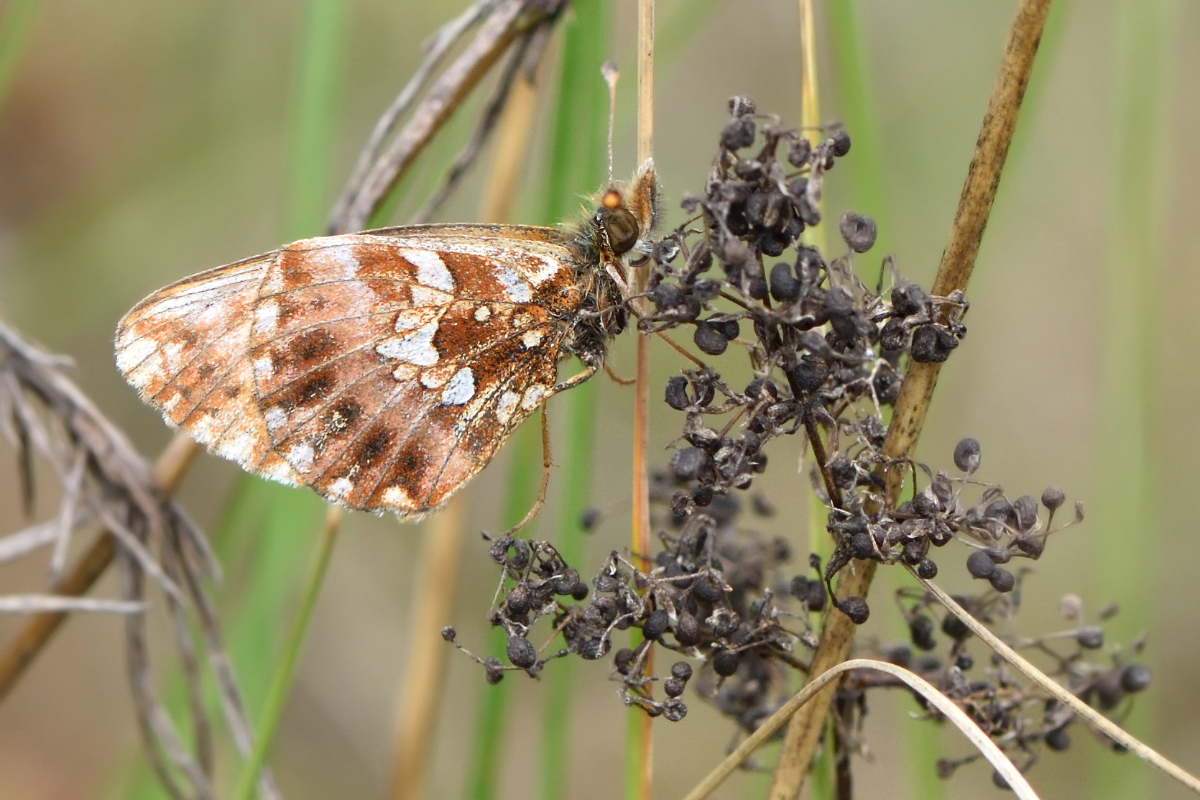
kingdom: Animalia
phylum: Arthropoda
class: Insecta
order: Lepidoptera
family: Nymphalidae
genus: Boloria
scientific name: Boloria dia
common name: Weaver's fritillary
